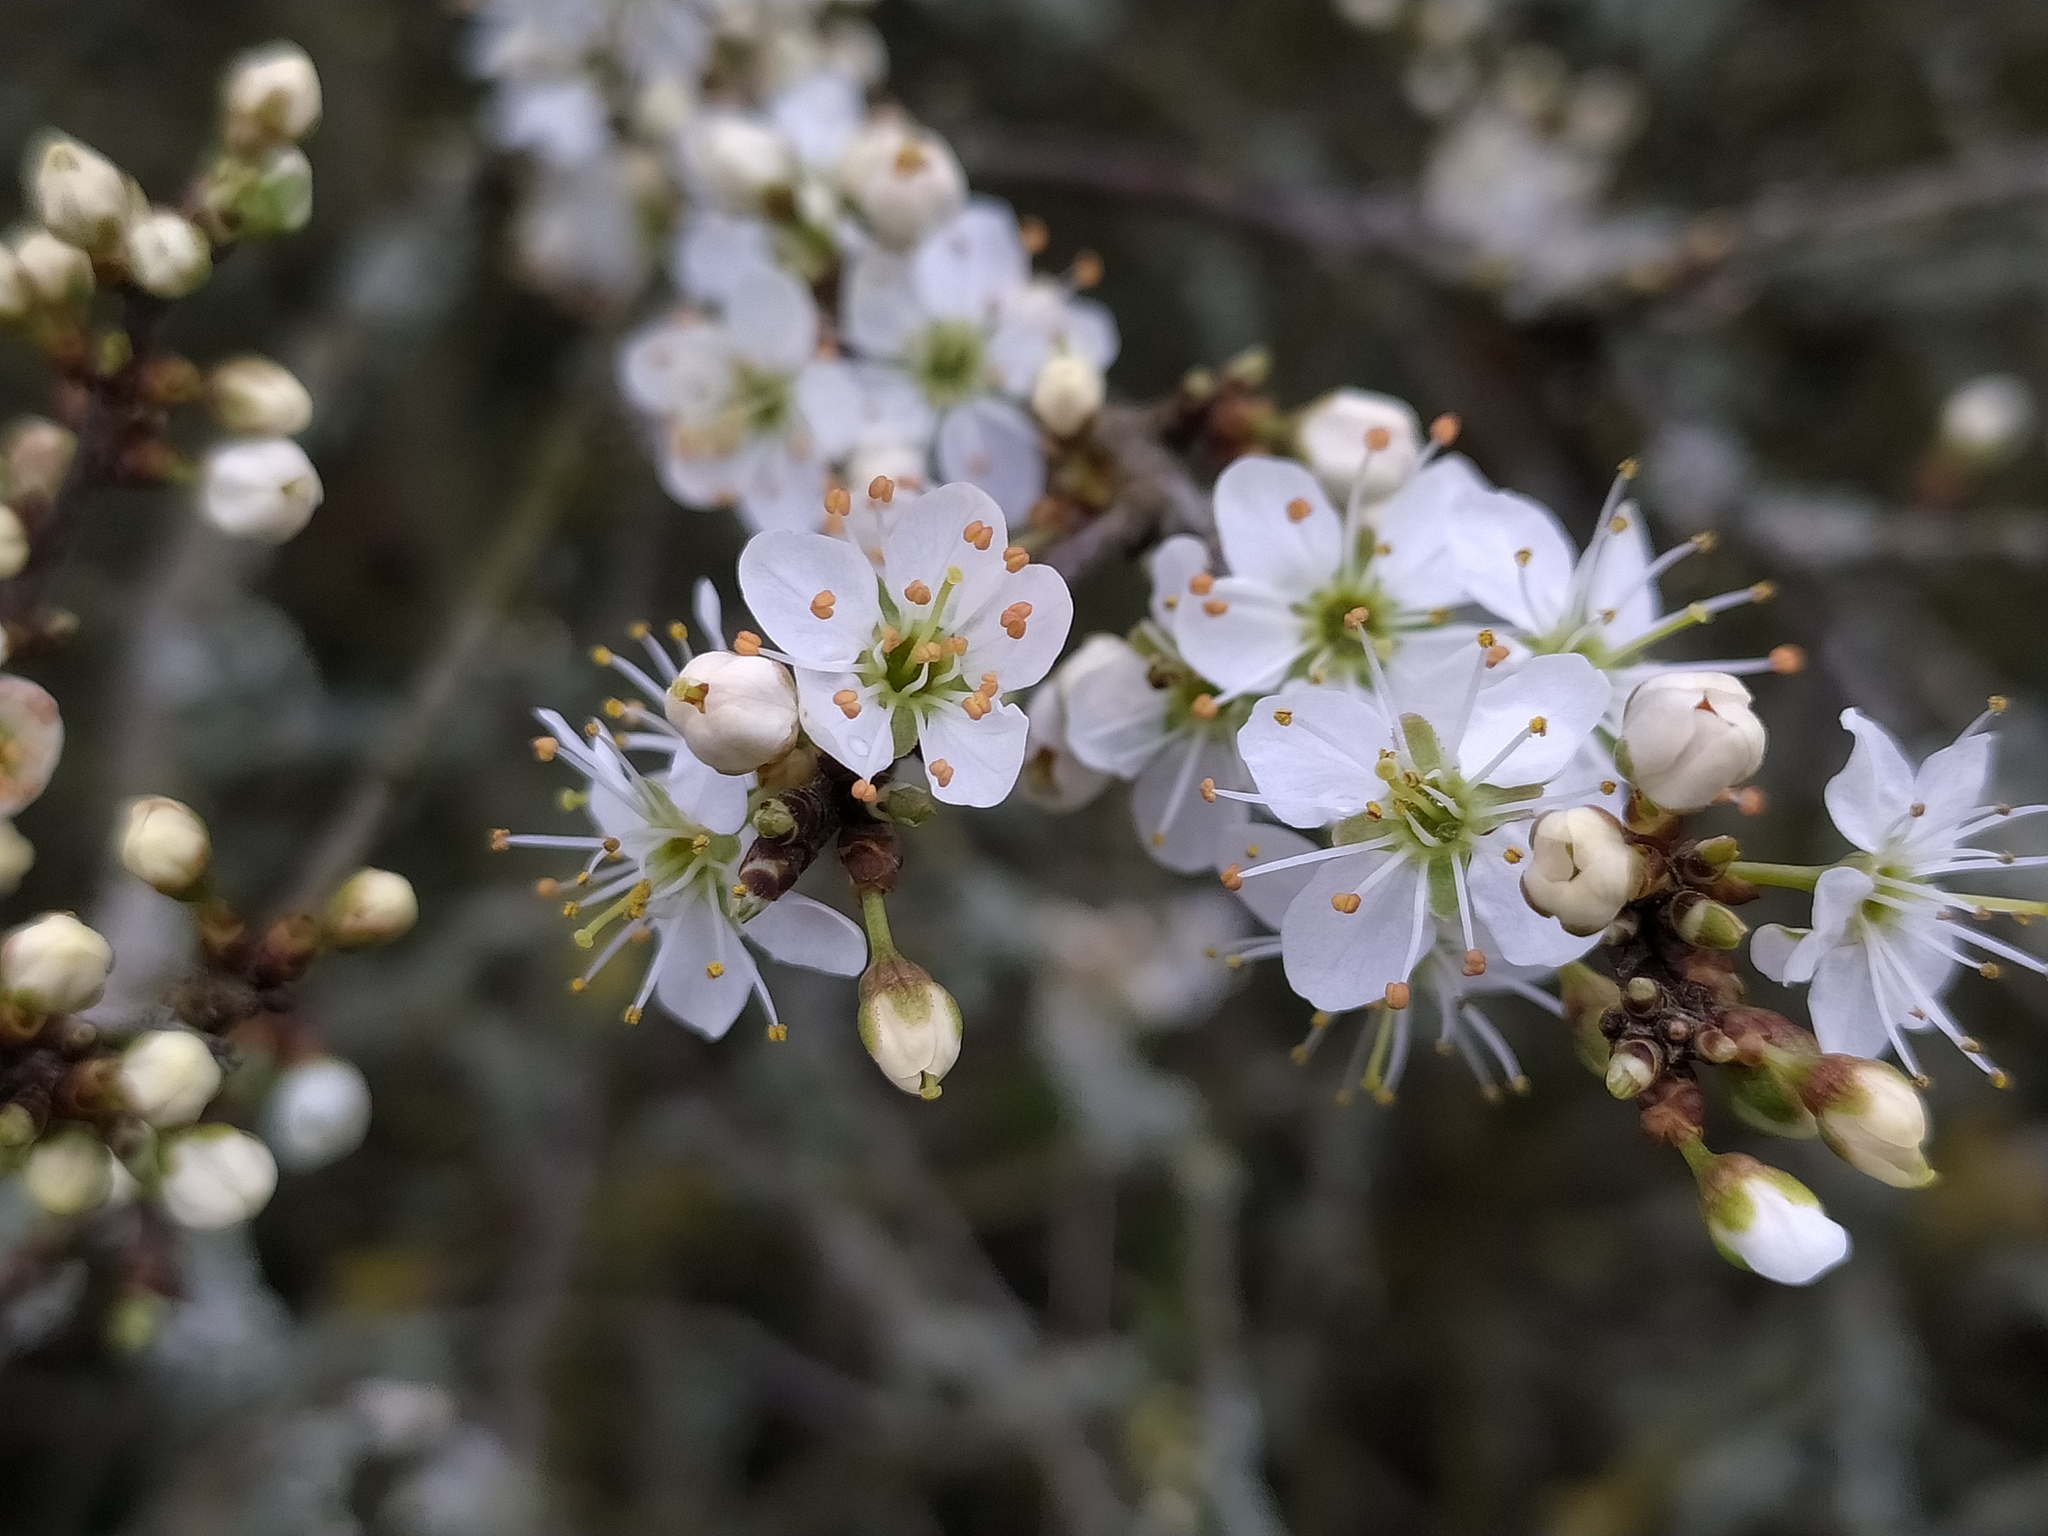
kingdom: Plantae
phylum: Tracheophyta
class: Magnoliopsida
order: Rosales
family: Rosaceae
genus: Prunus
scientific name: Prunus spinosa
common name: Blackthorn
